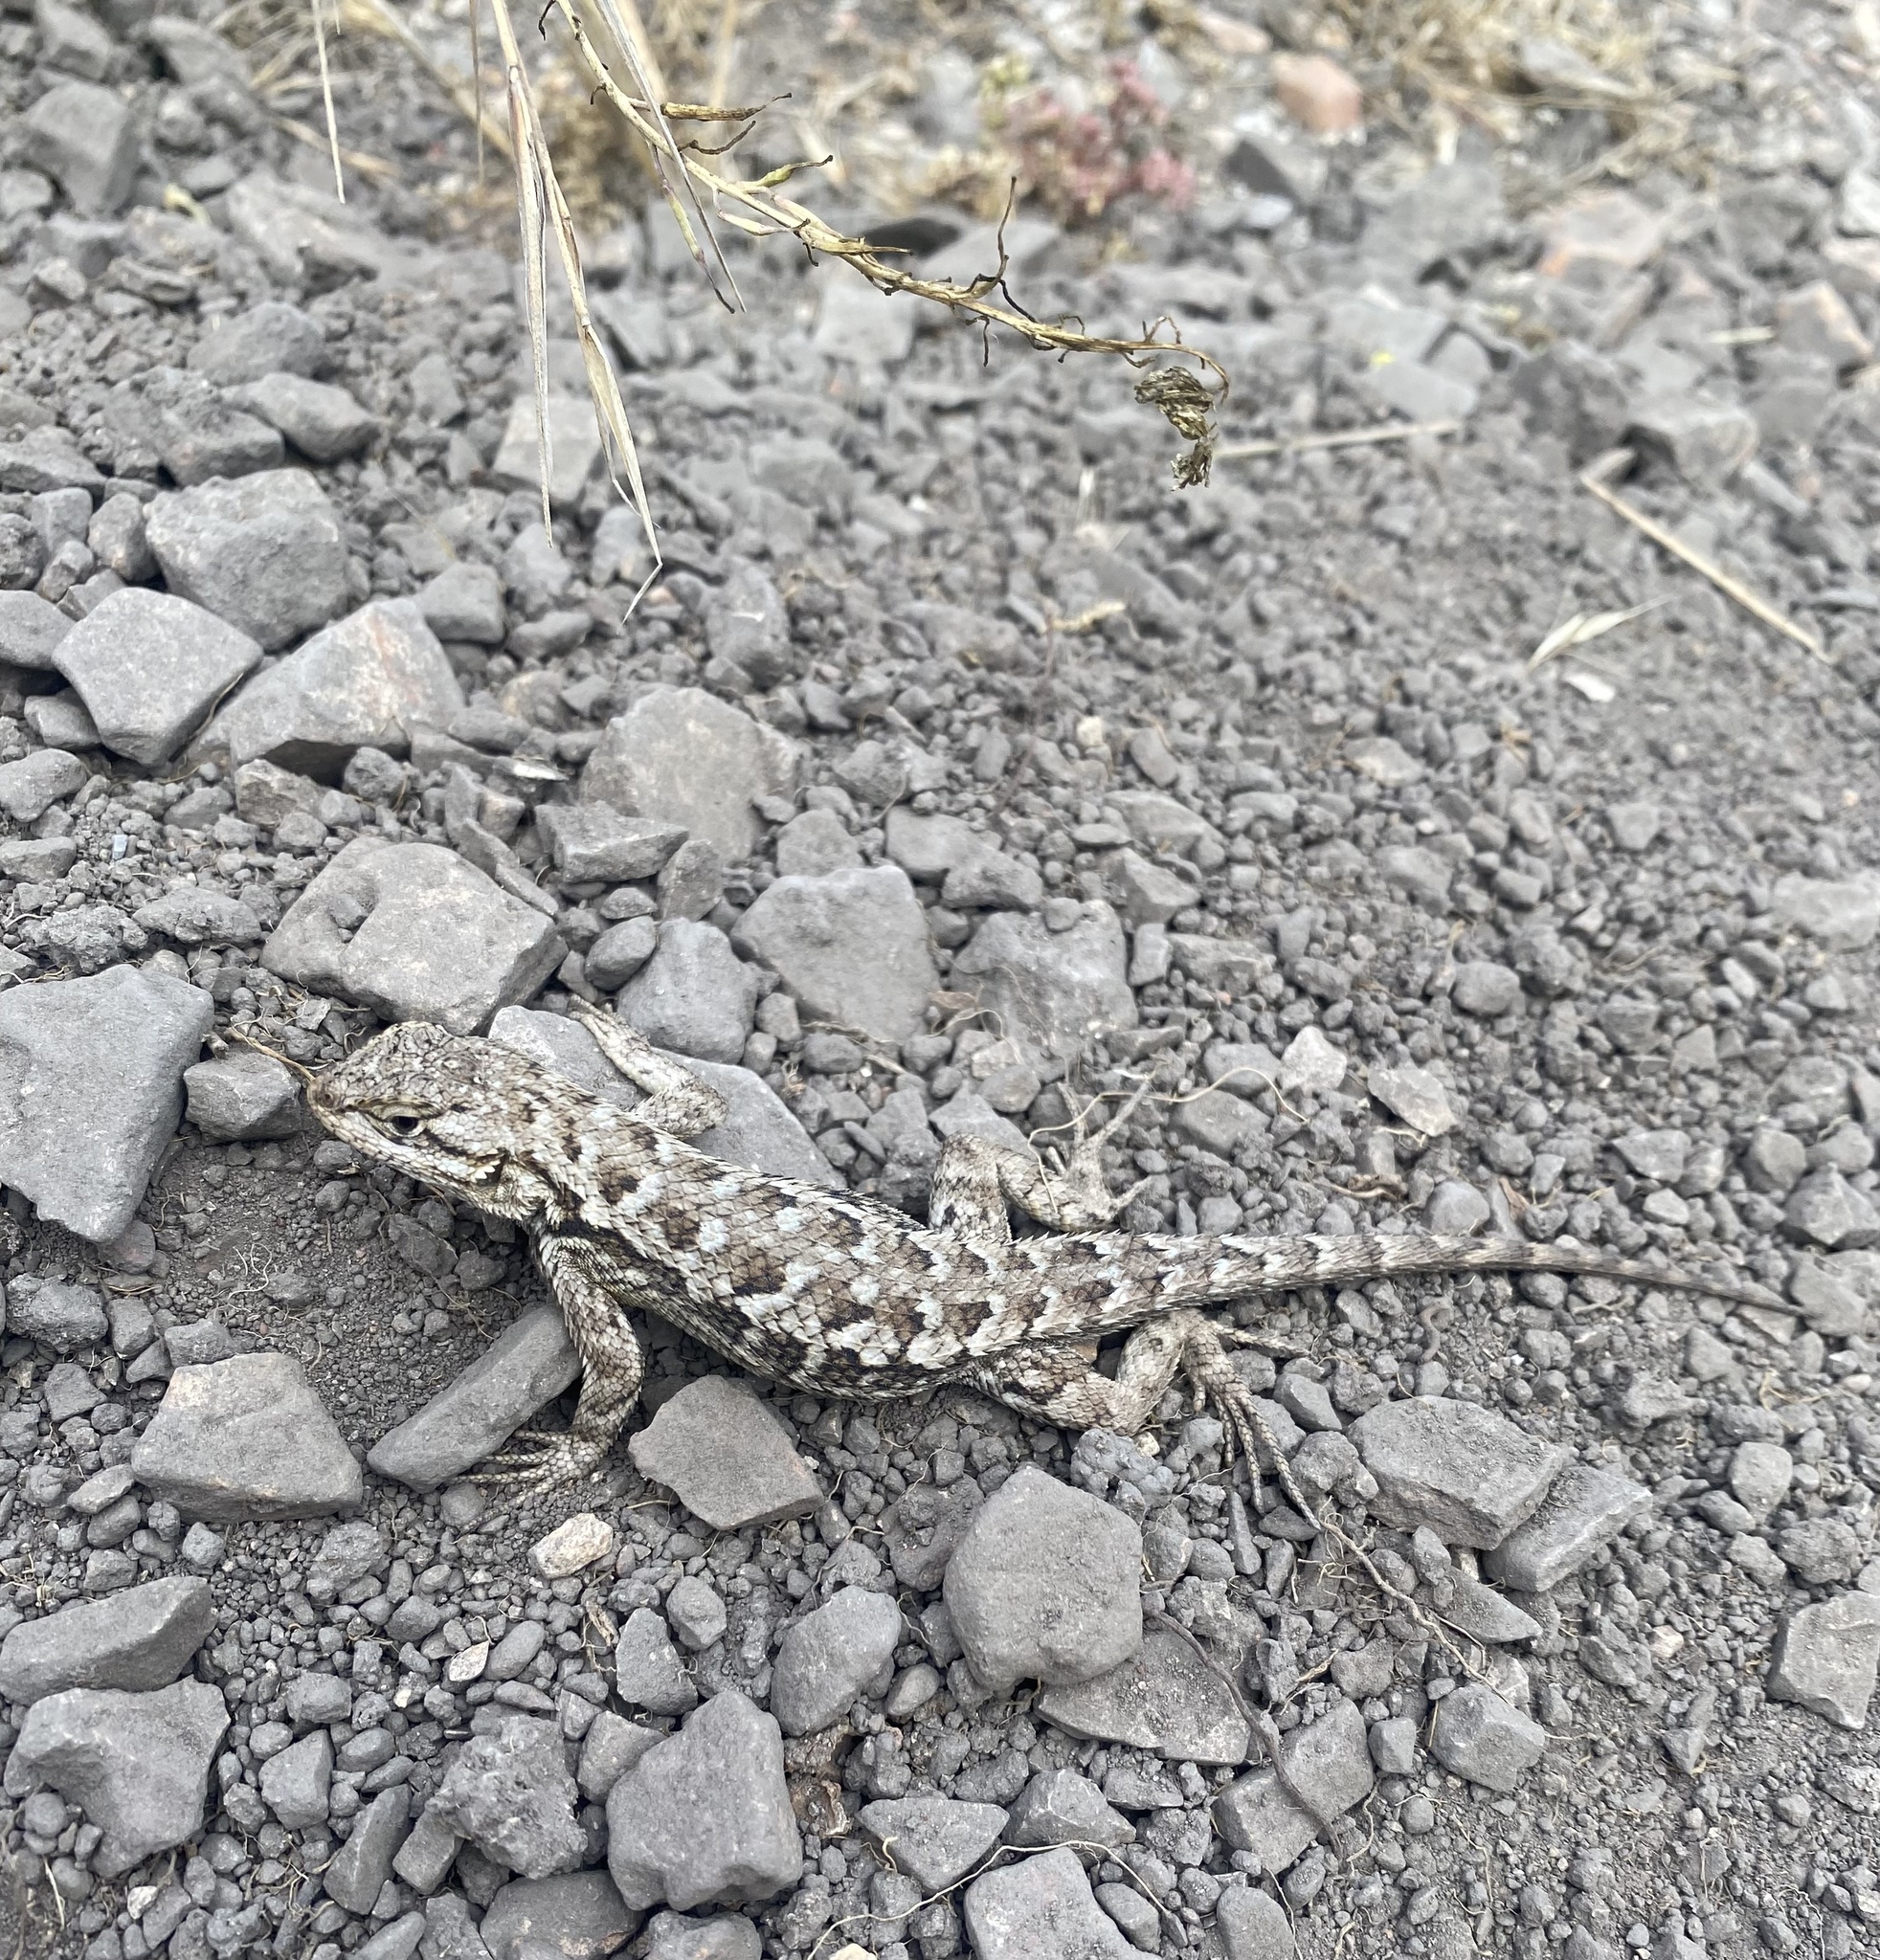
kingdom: Animalia
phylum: Chordata
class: Squamata
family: Phrynosomatidae
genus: Sceloporus
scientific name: Sceloporus occidentalis
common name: Western fence lizard
